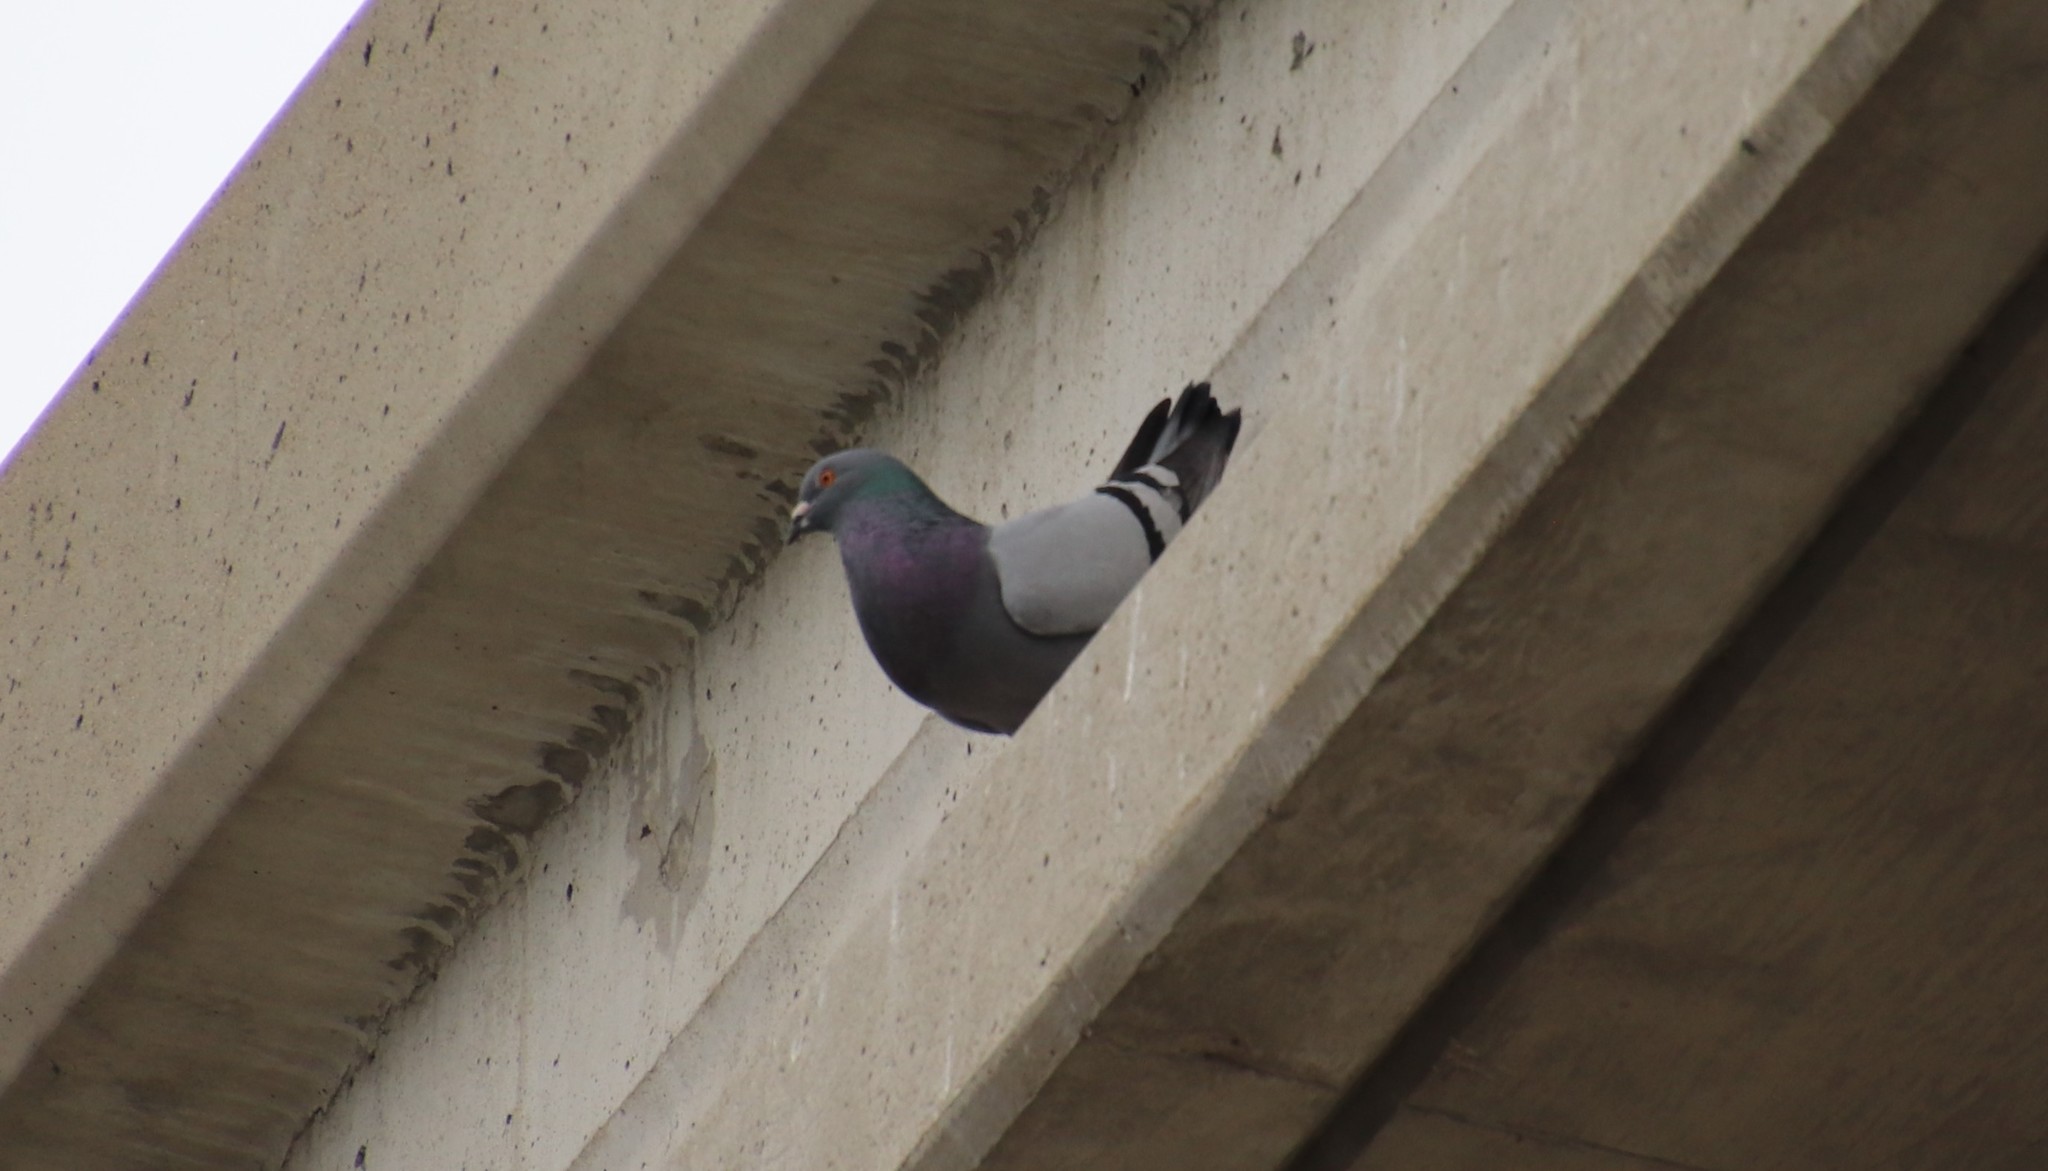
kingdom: Animalia
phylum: Chordata
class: Aves
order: Columbiformes
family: Columbidae
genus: Columba
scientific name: Columba livia
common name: Rock pigeon
